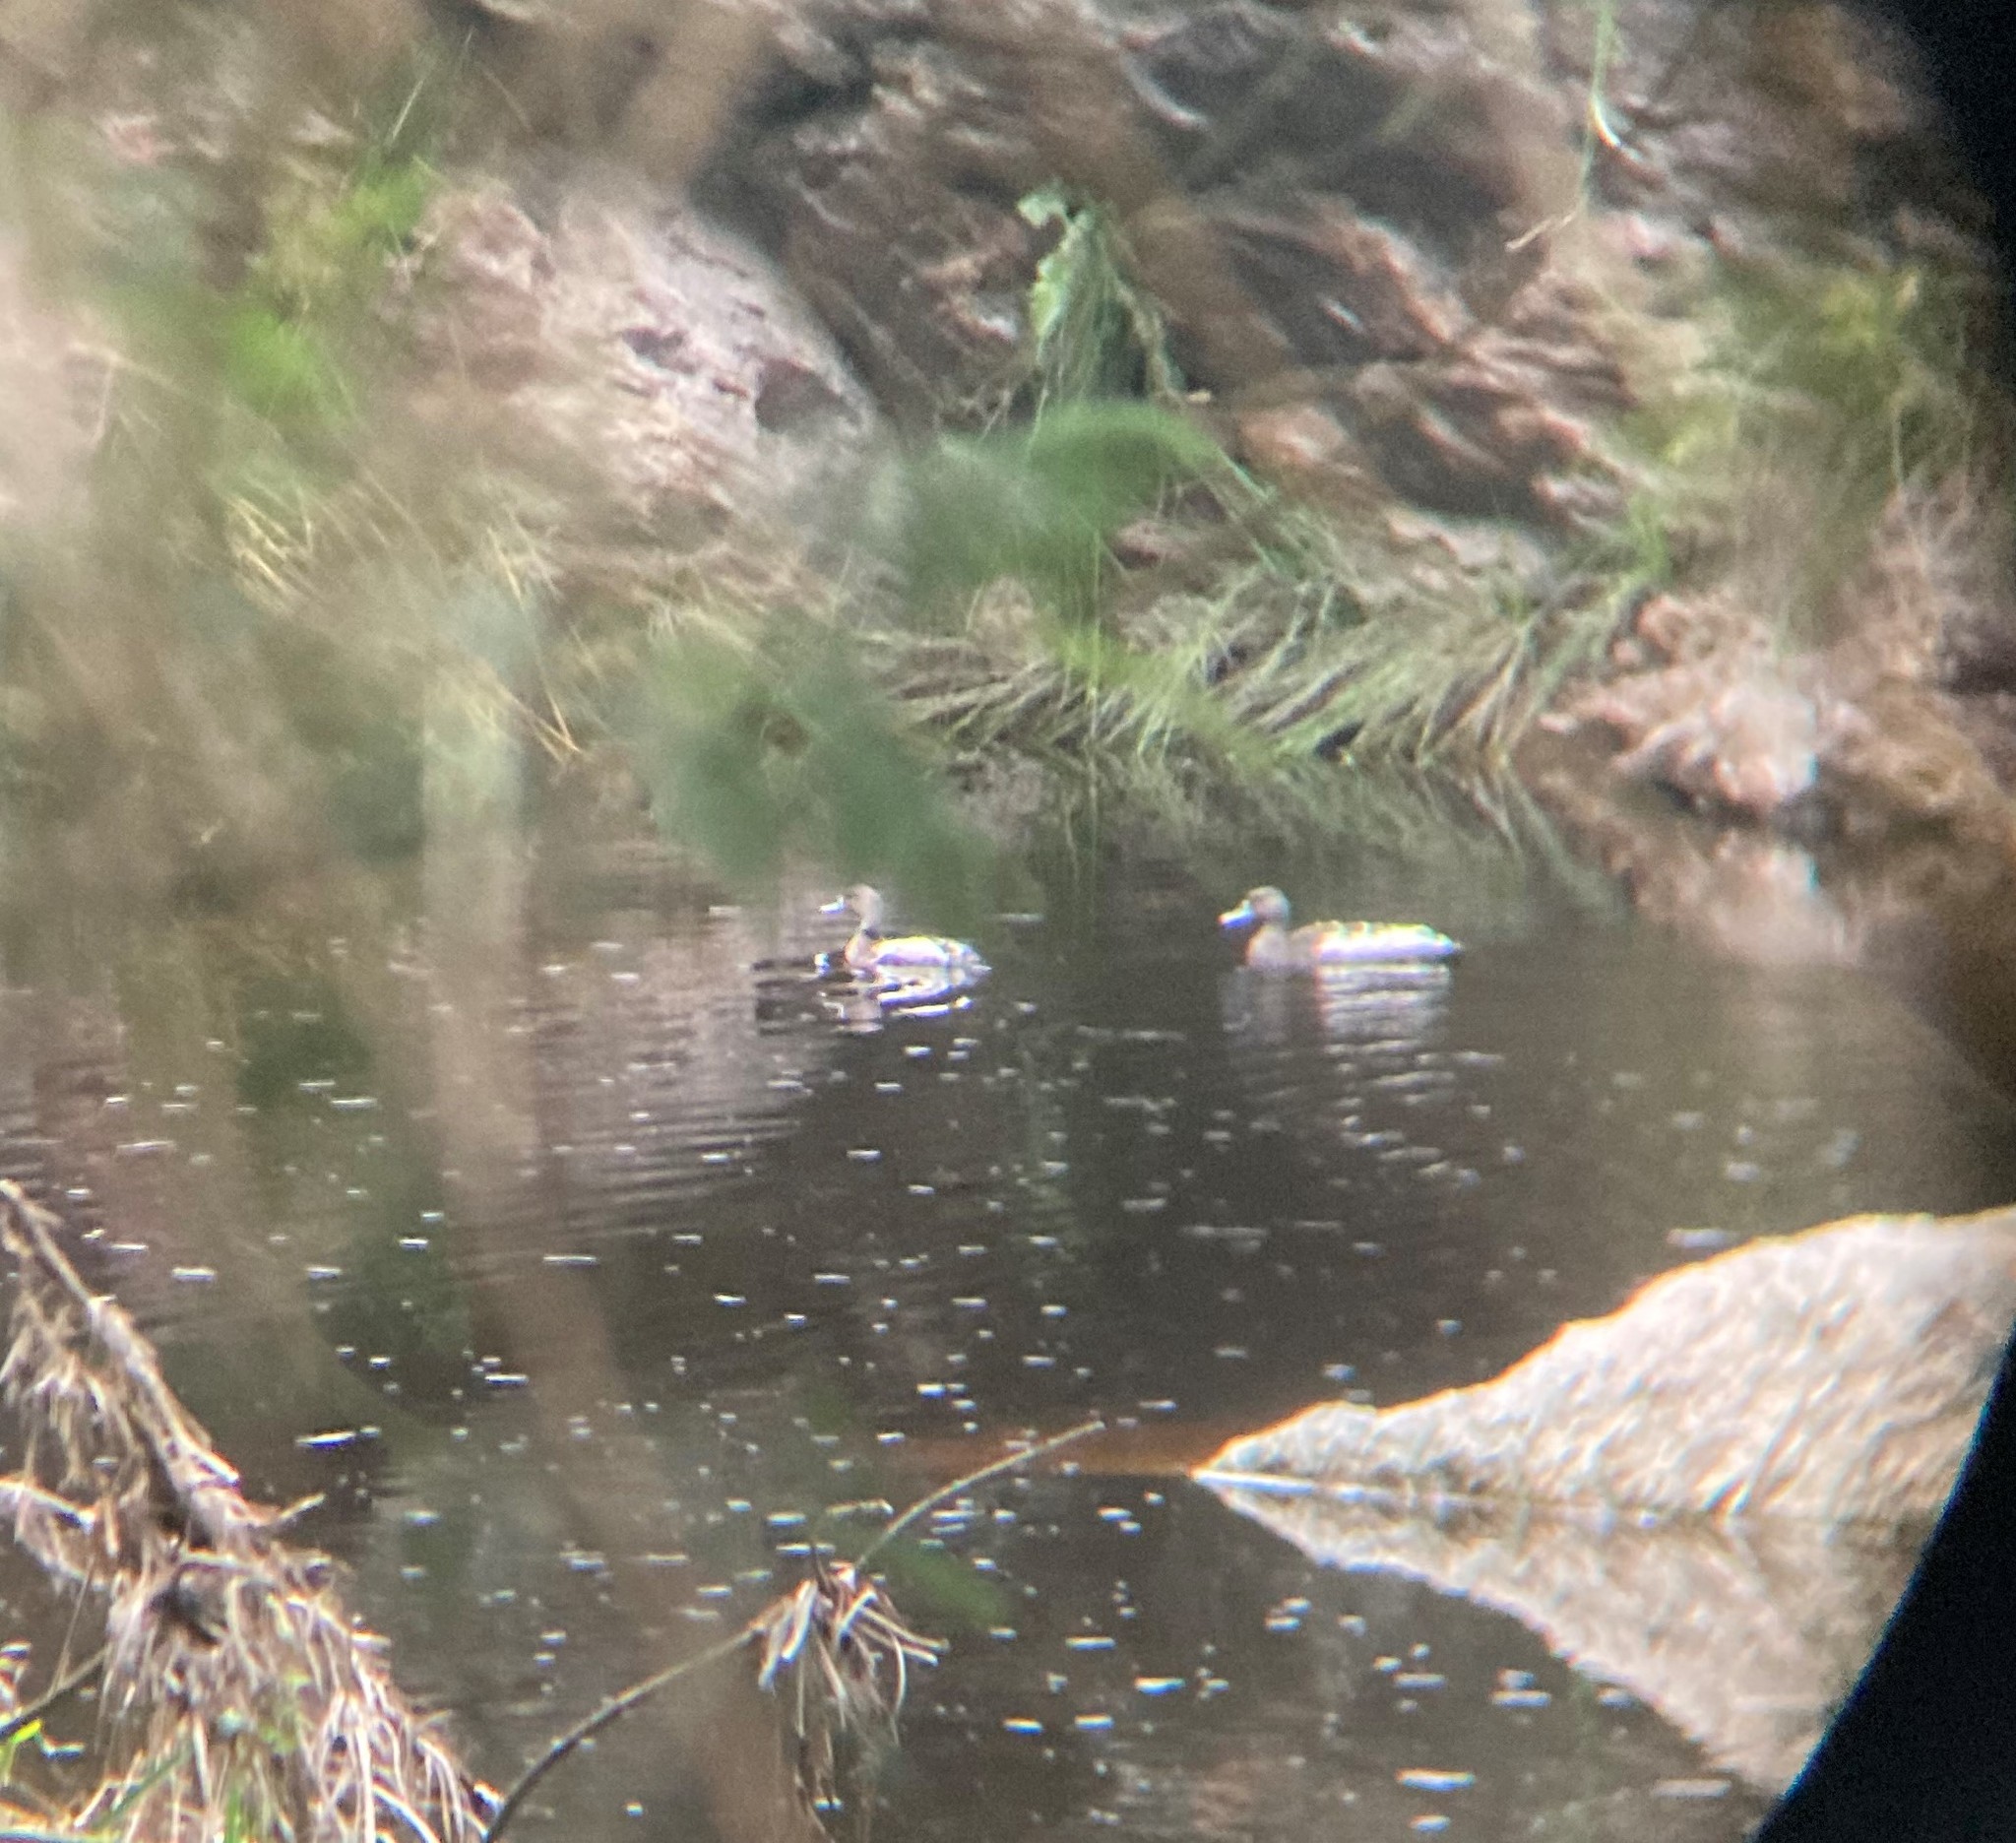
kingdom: Animalia
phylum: Chordata
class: Aves
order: Anseriformes
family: Anatidae
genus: Anas
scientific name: Anas sparsa
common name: African black duck
